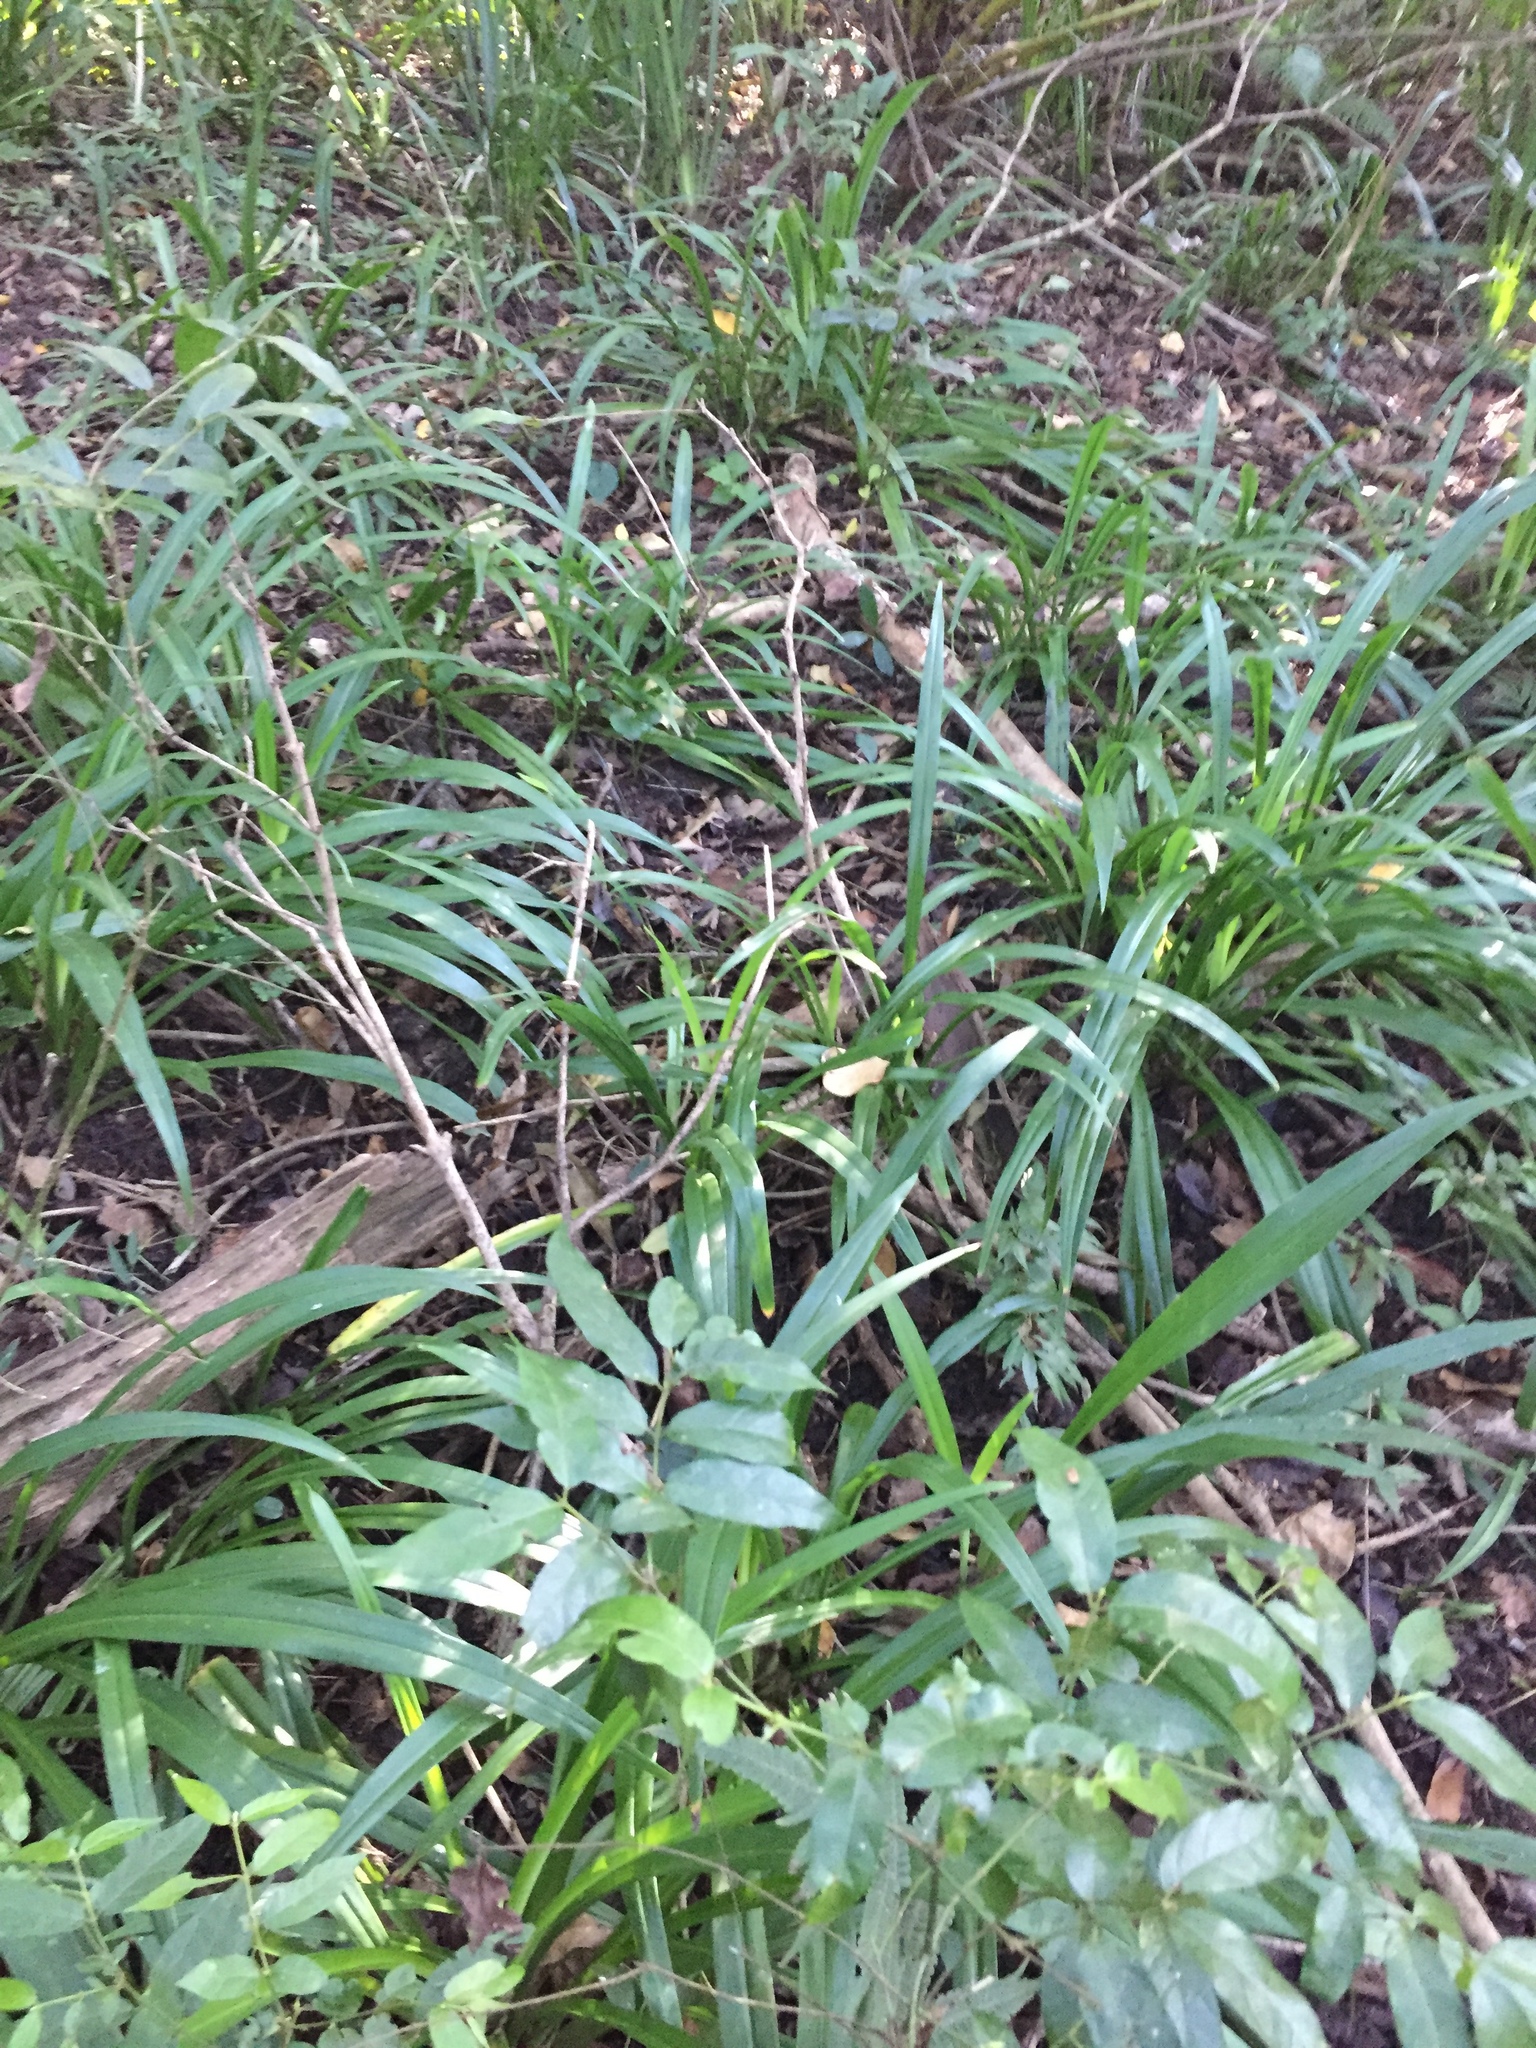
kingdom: Plantae
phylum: Tracheophyta
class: Polypodiopsida
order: Polypodiales
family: Blechnaceae
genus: Stenochlaena
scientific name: Stenochlaena tenuifolia
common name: Giant vine fern
